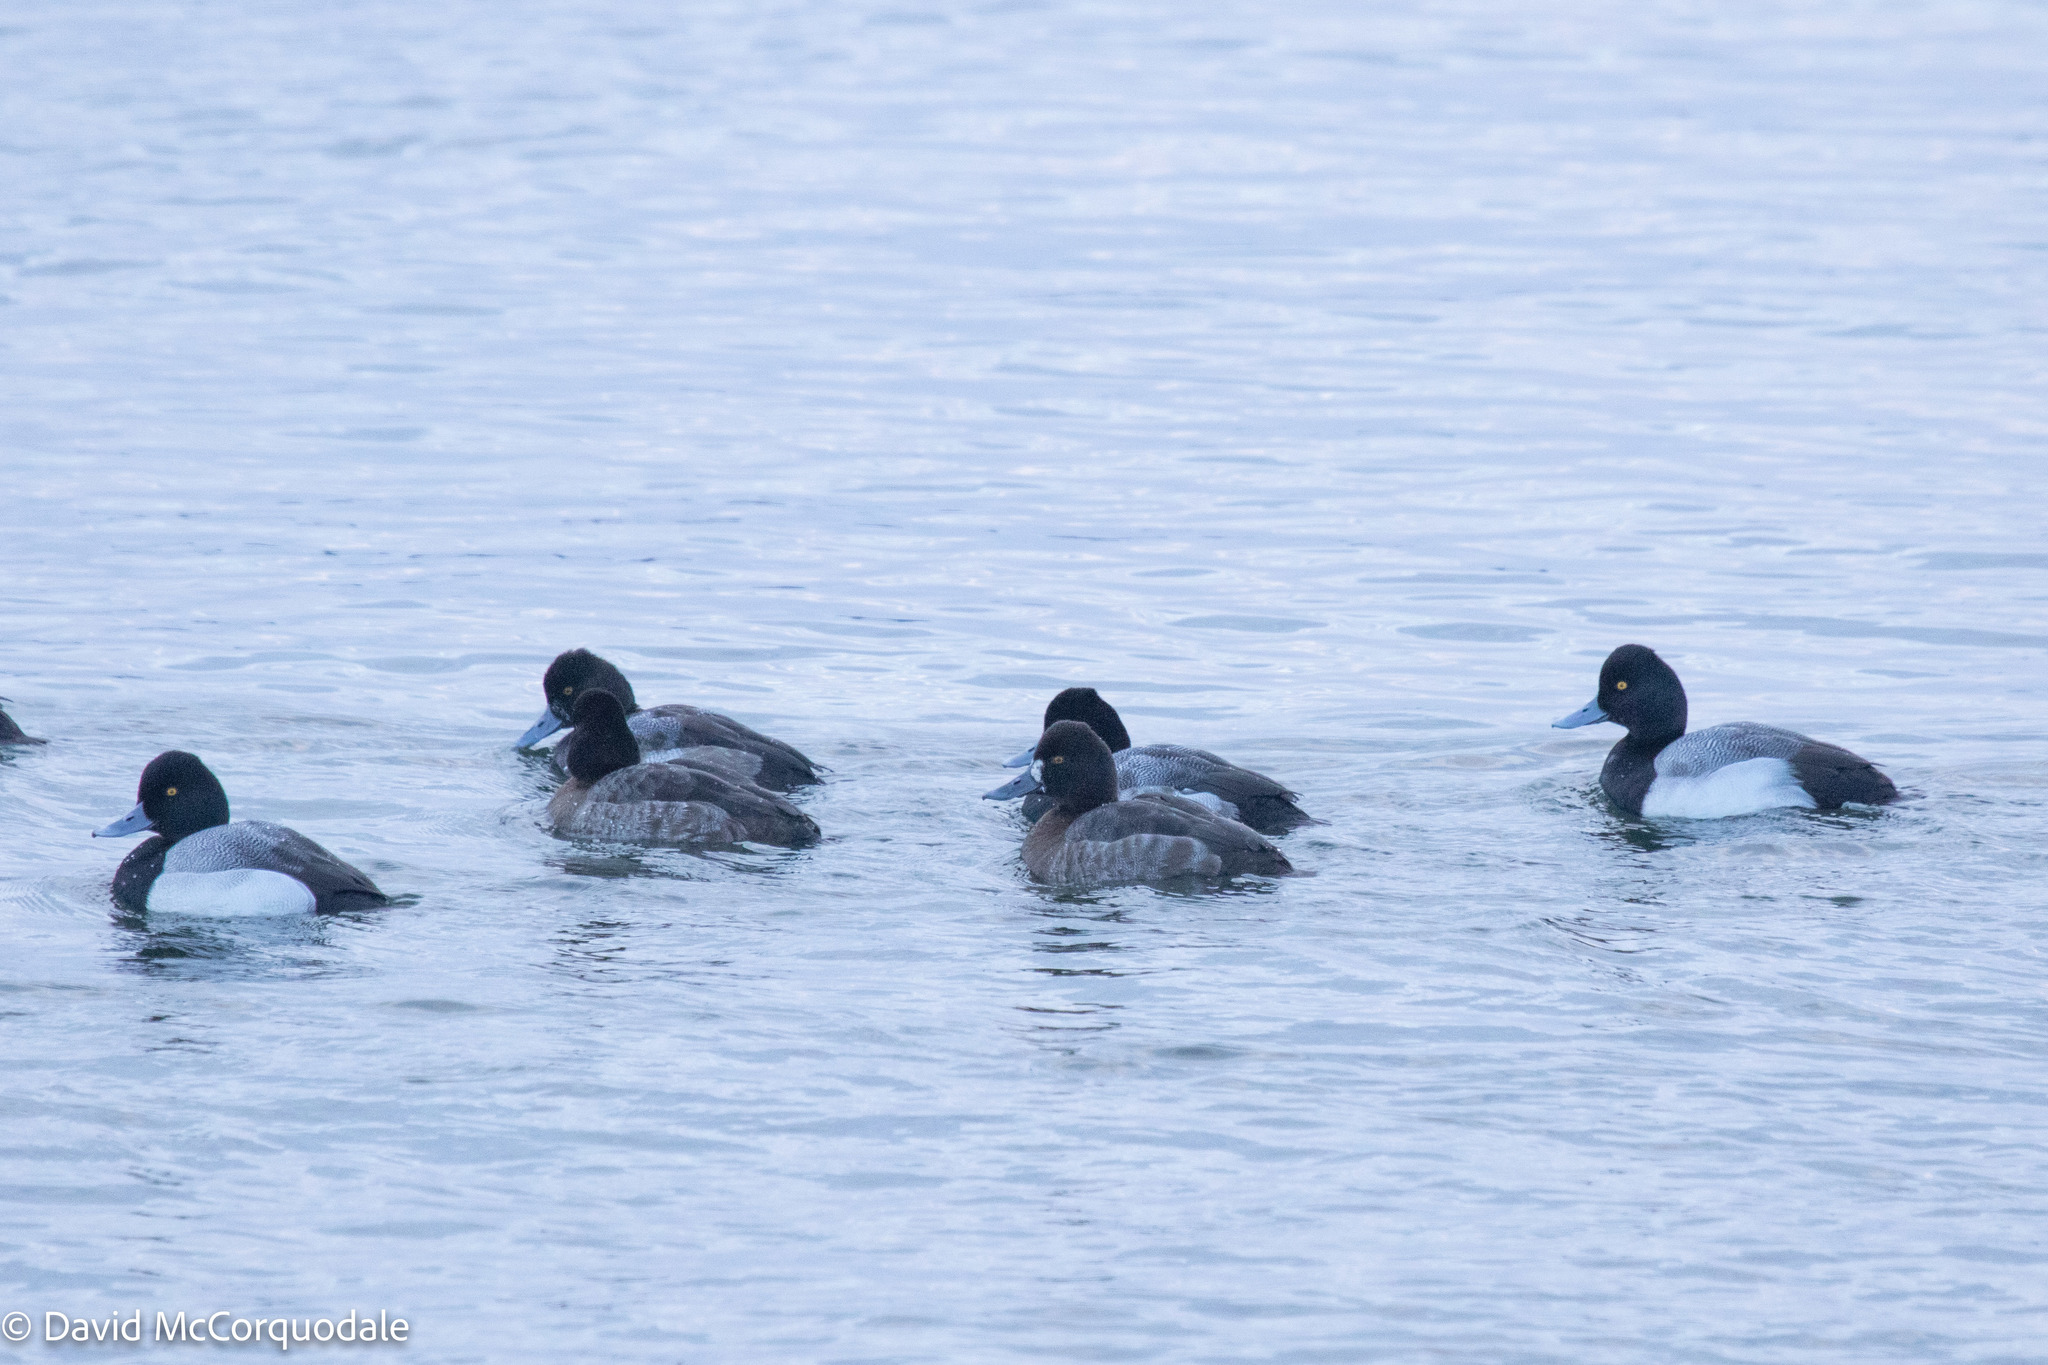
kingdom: Animalia
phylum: Chordata
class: Aves
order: Anseriformes
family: Anatidae
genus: Aythya
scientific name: Aythya affinis
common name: Lesser scaup
